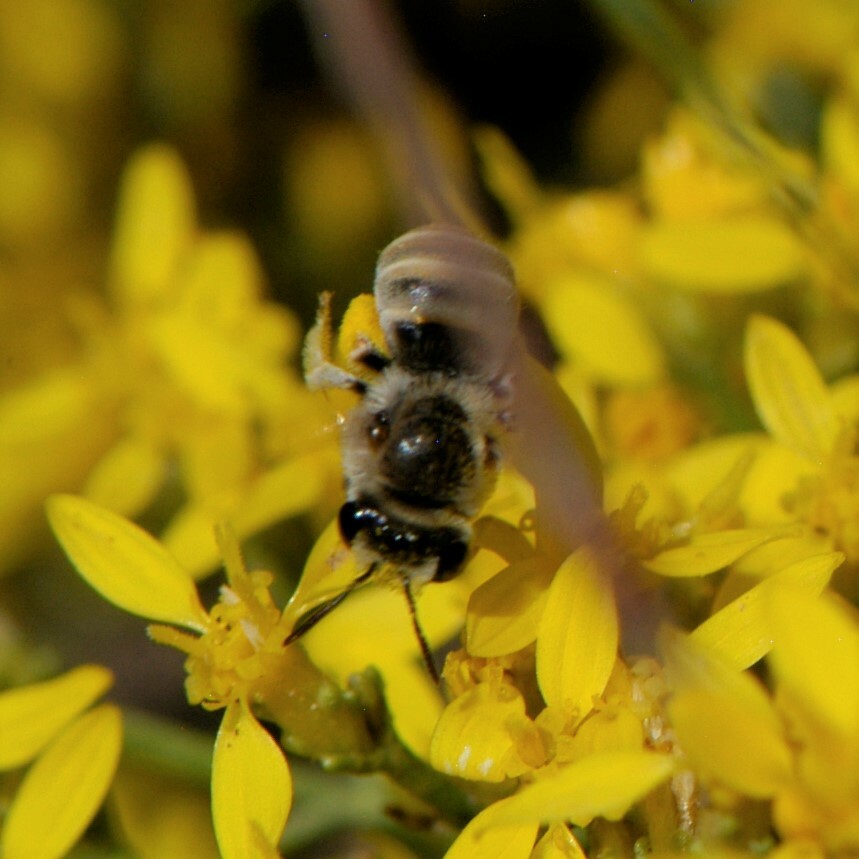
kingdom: Animalia
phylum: Arthropoda
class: Insecta
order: Hymenoptera
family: Apidae
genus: Tetraloniella
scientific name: Tetraloniella
